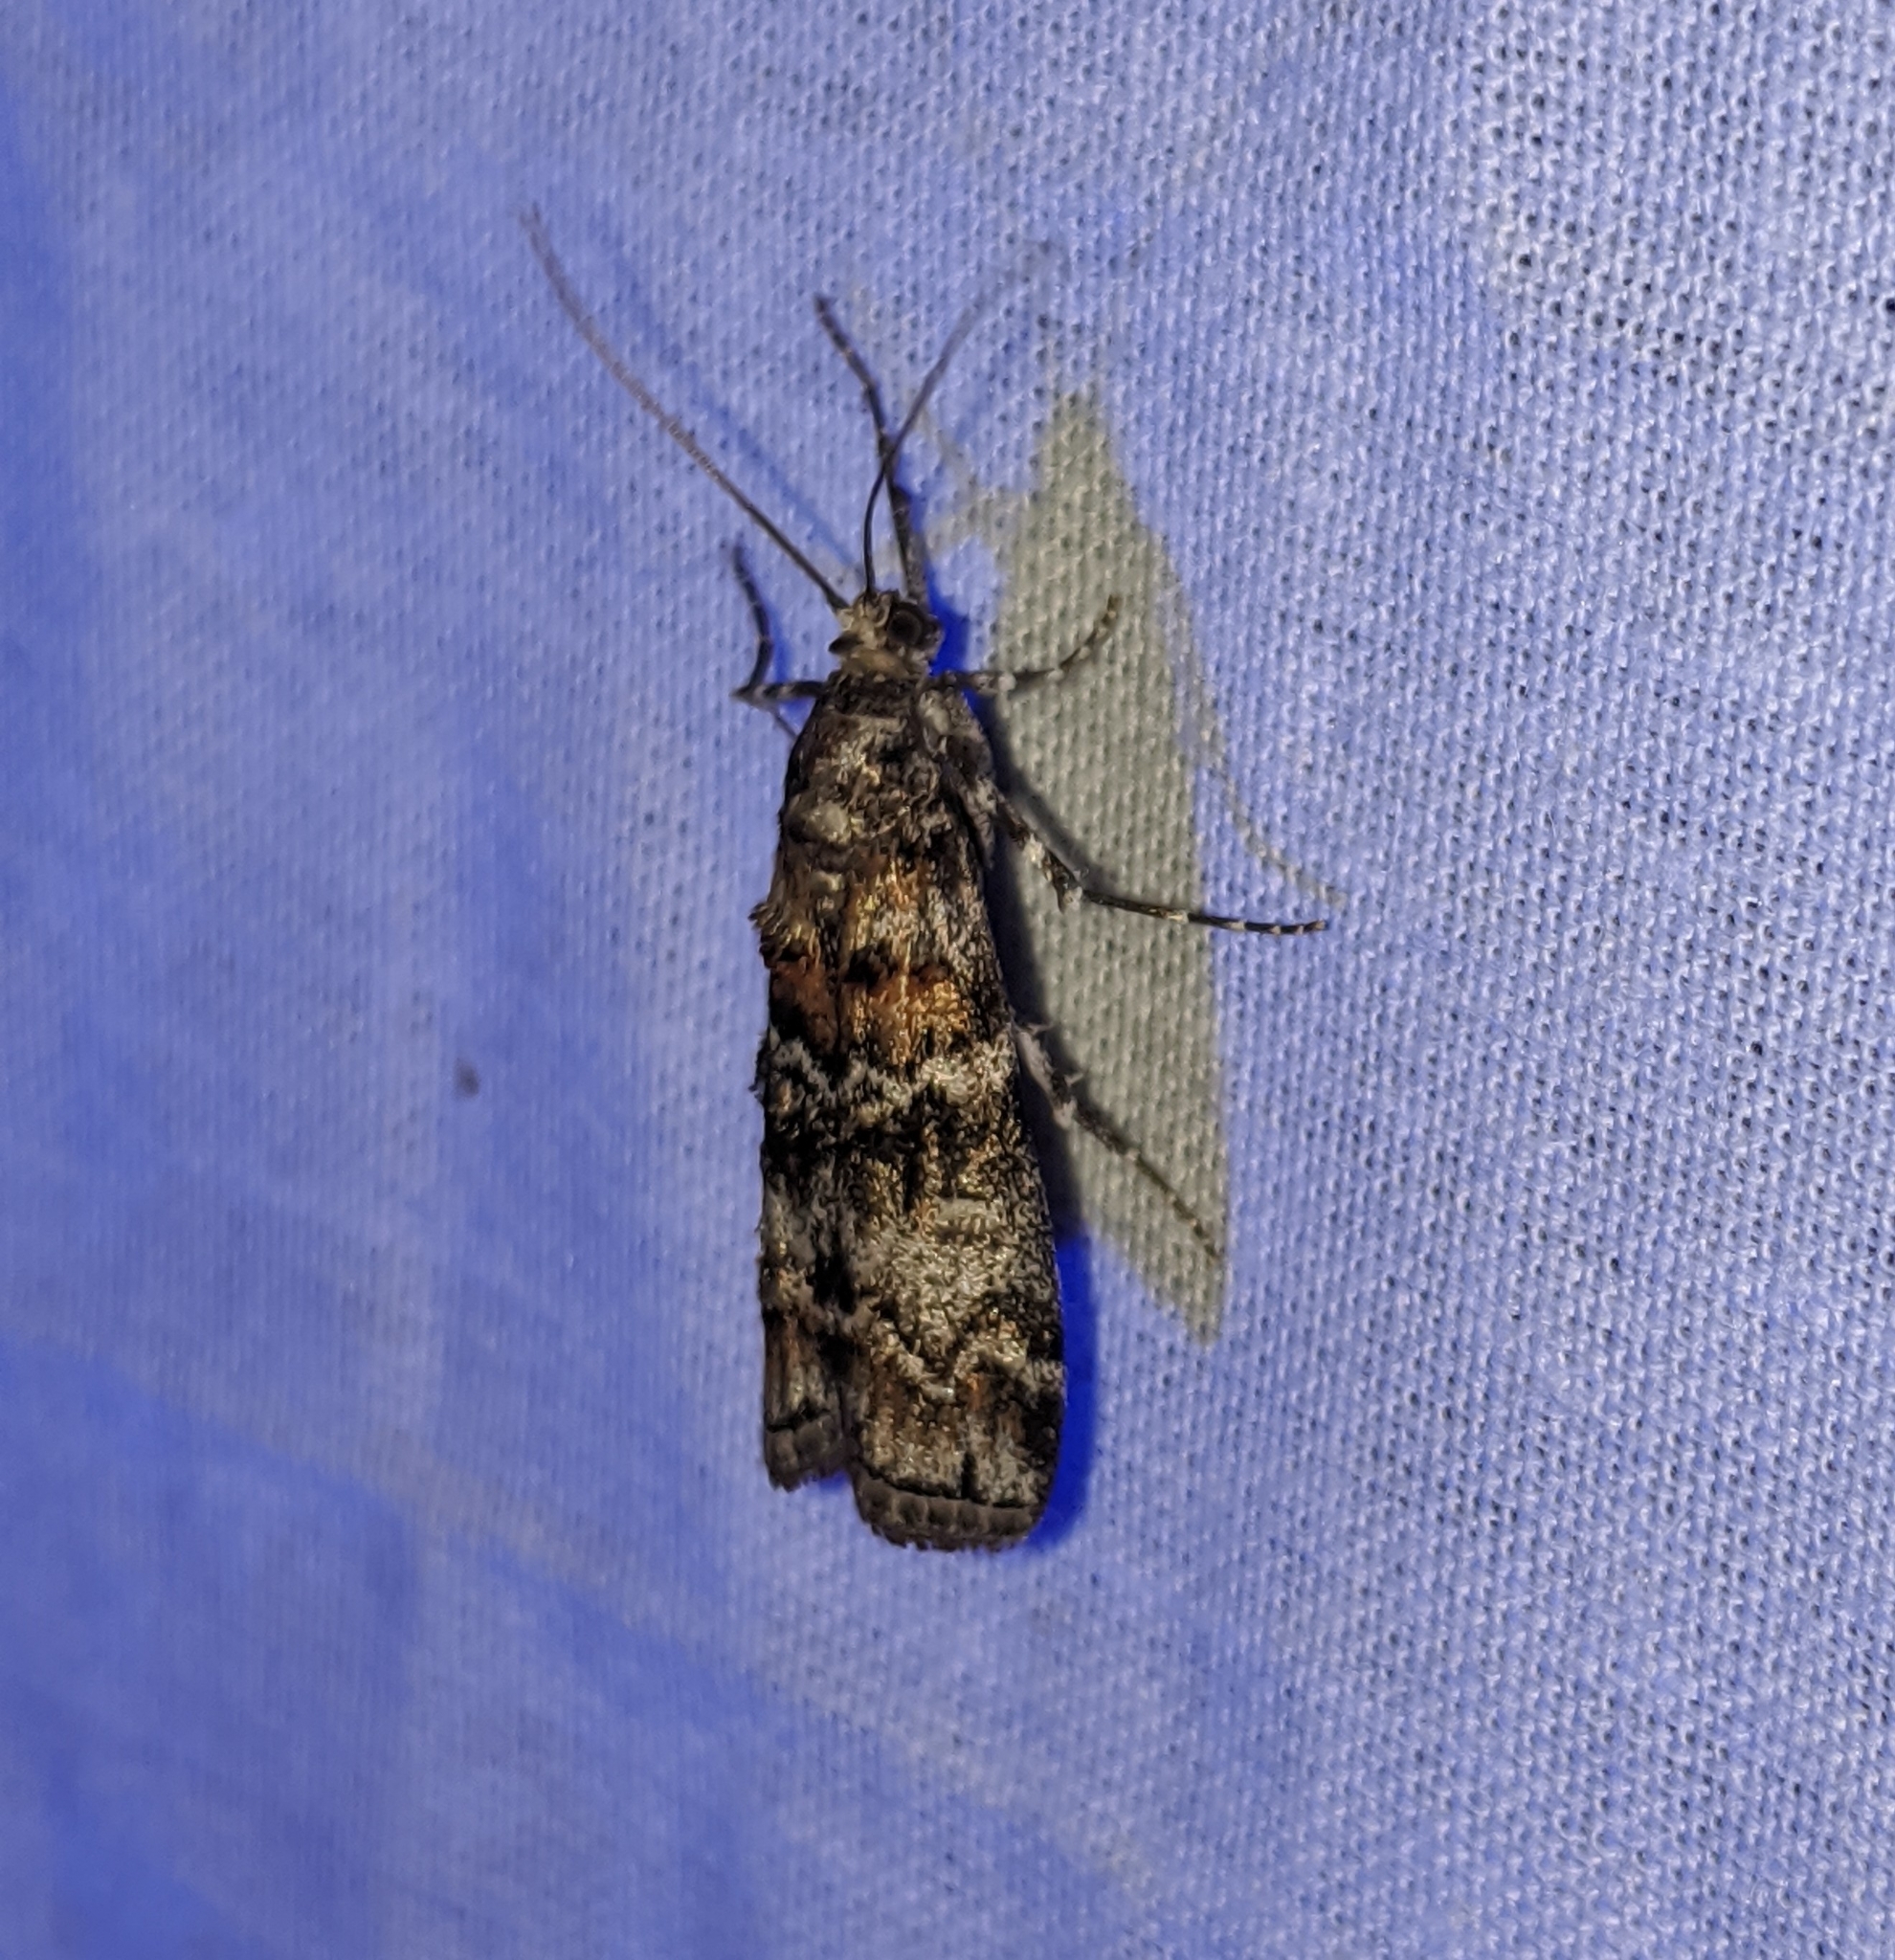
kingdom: Animalia
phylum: Arthropoda
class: Insecta
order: Lepidoptera
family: Pyralidae
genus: Dioryctria
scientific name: Dioryctria banksiella
